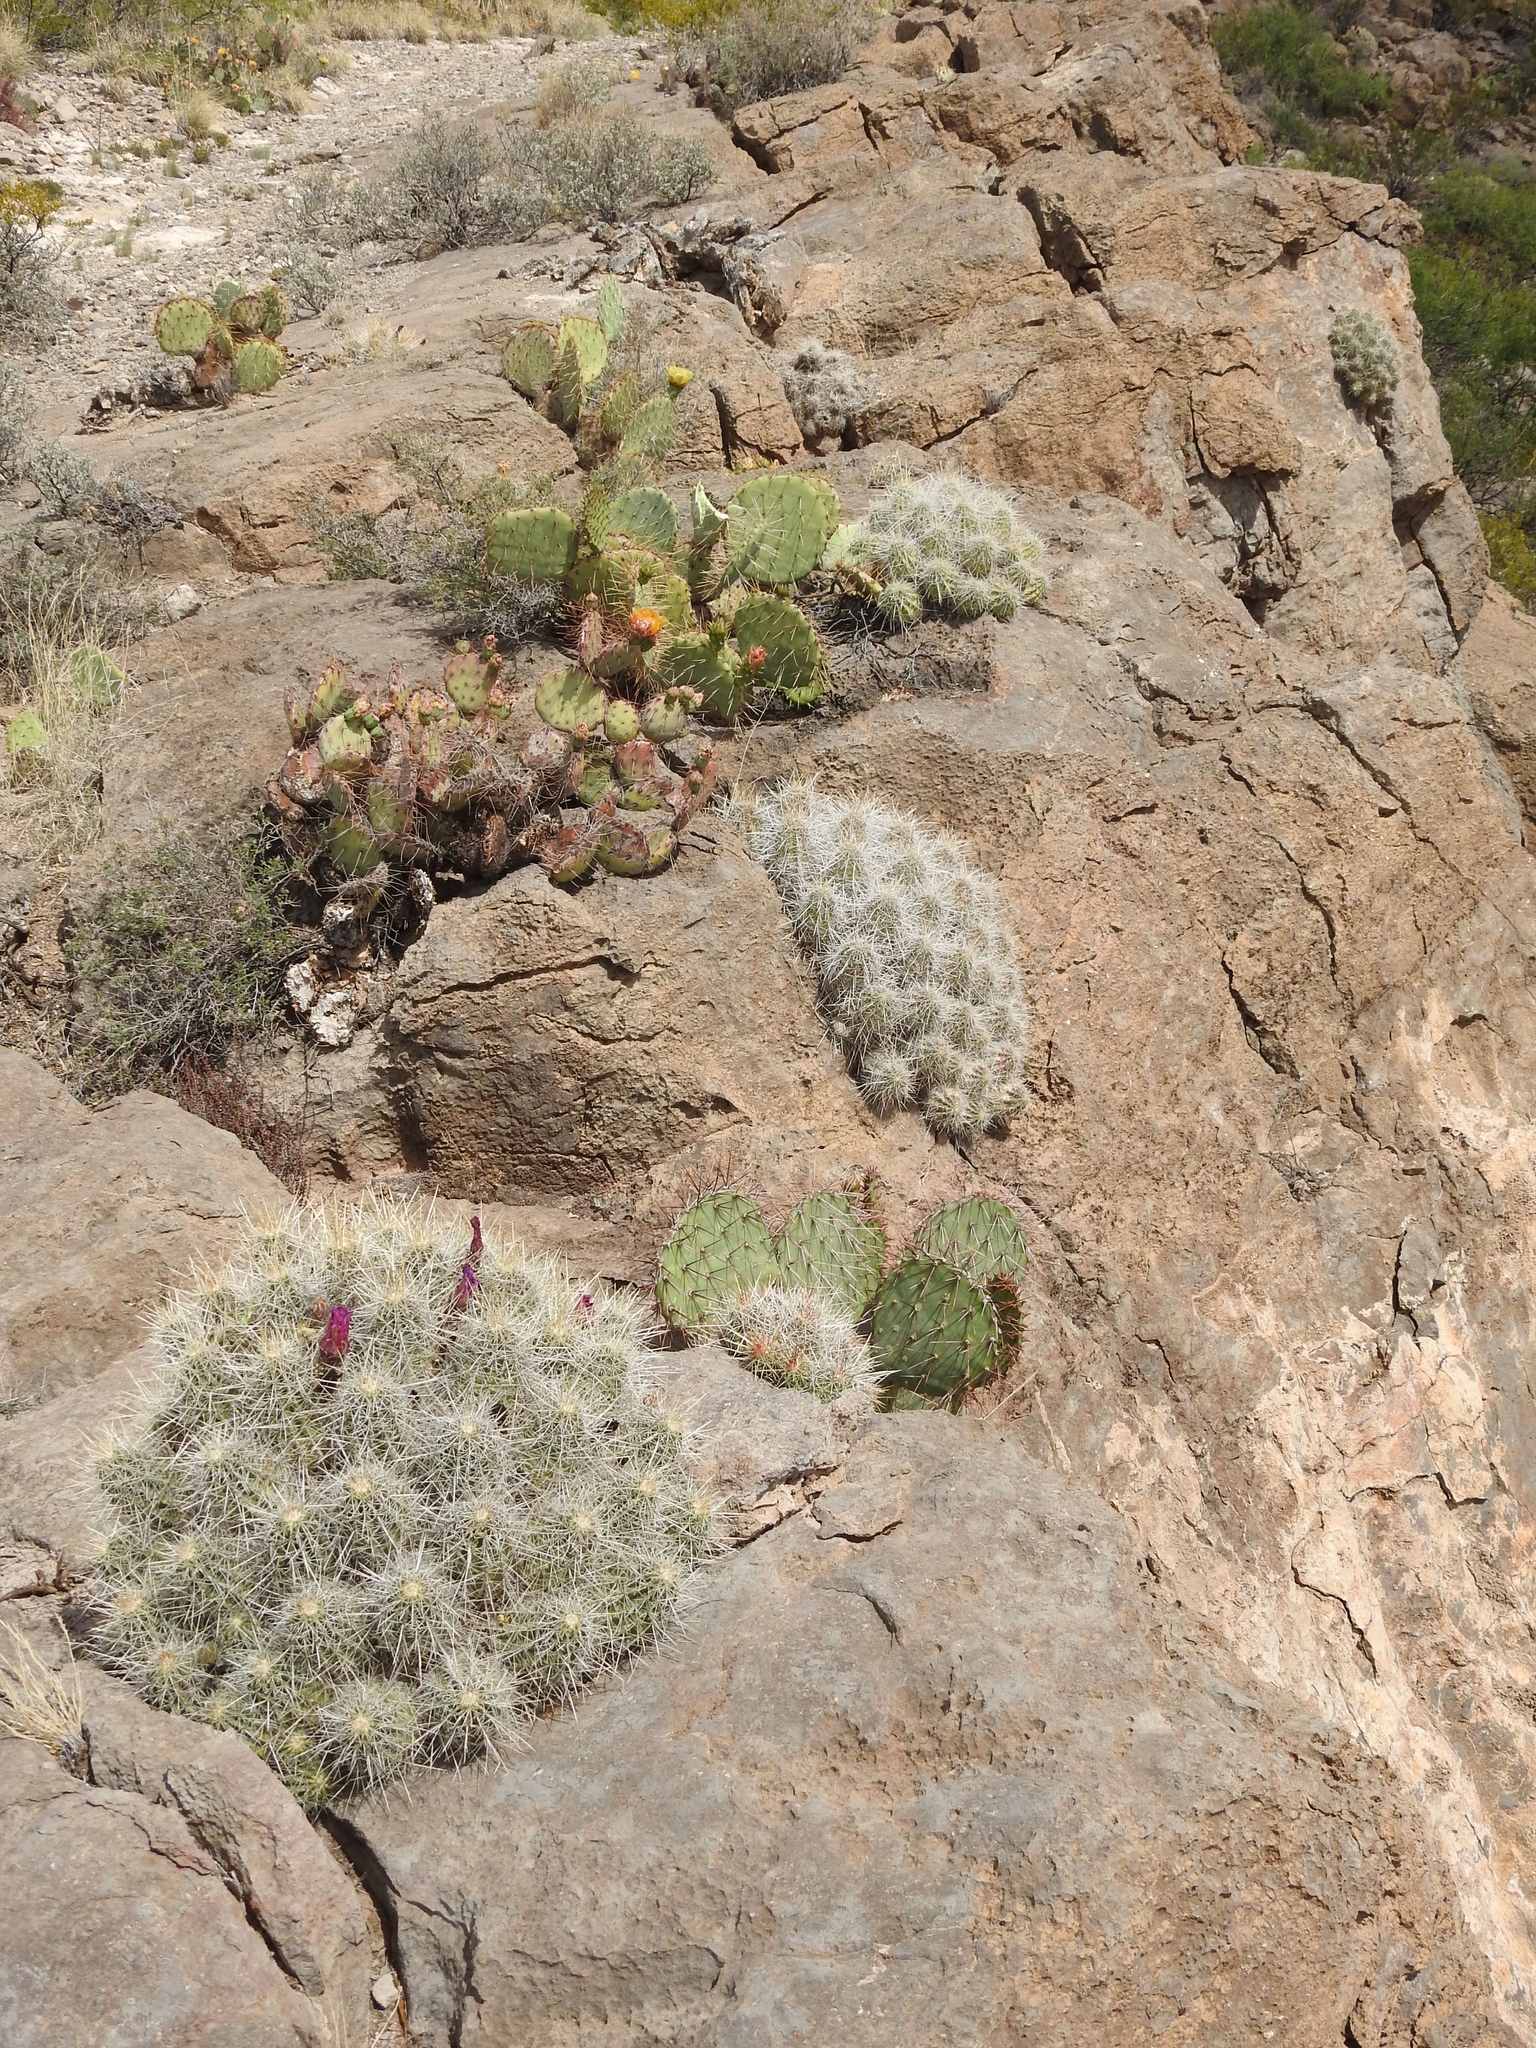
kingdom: Plantae
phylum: Tracheophyta
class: Magnoliopsida
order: Caryophyllales
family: Cactaceae
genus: Echinocereus
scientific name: Echinocereus stramineus
